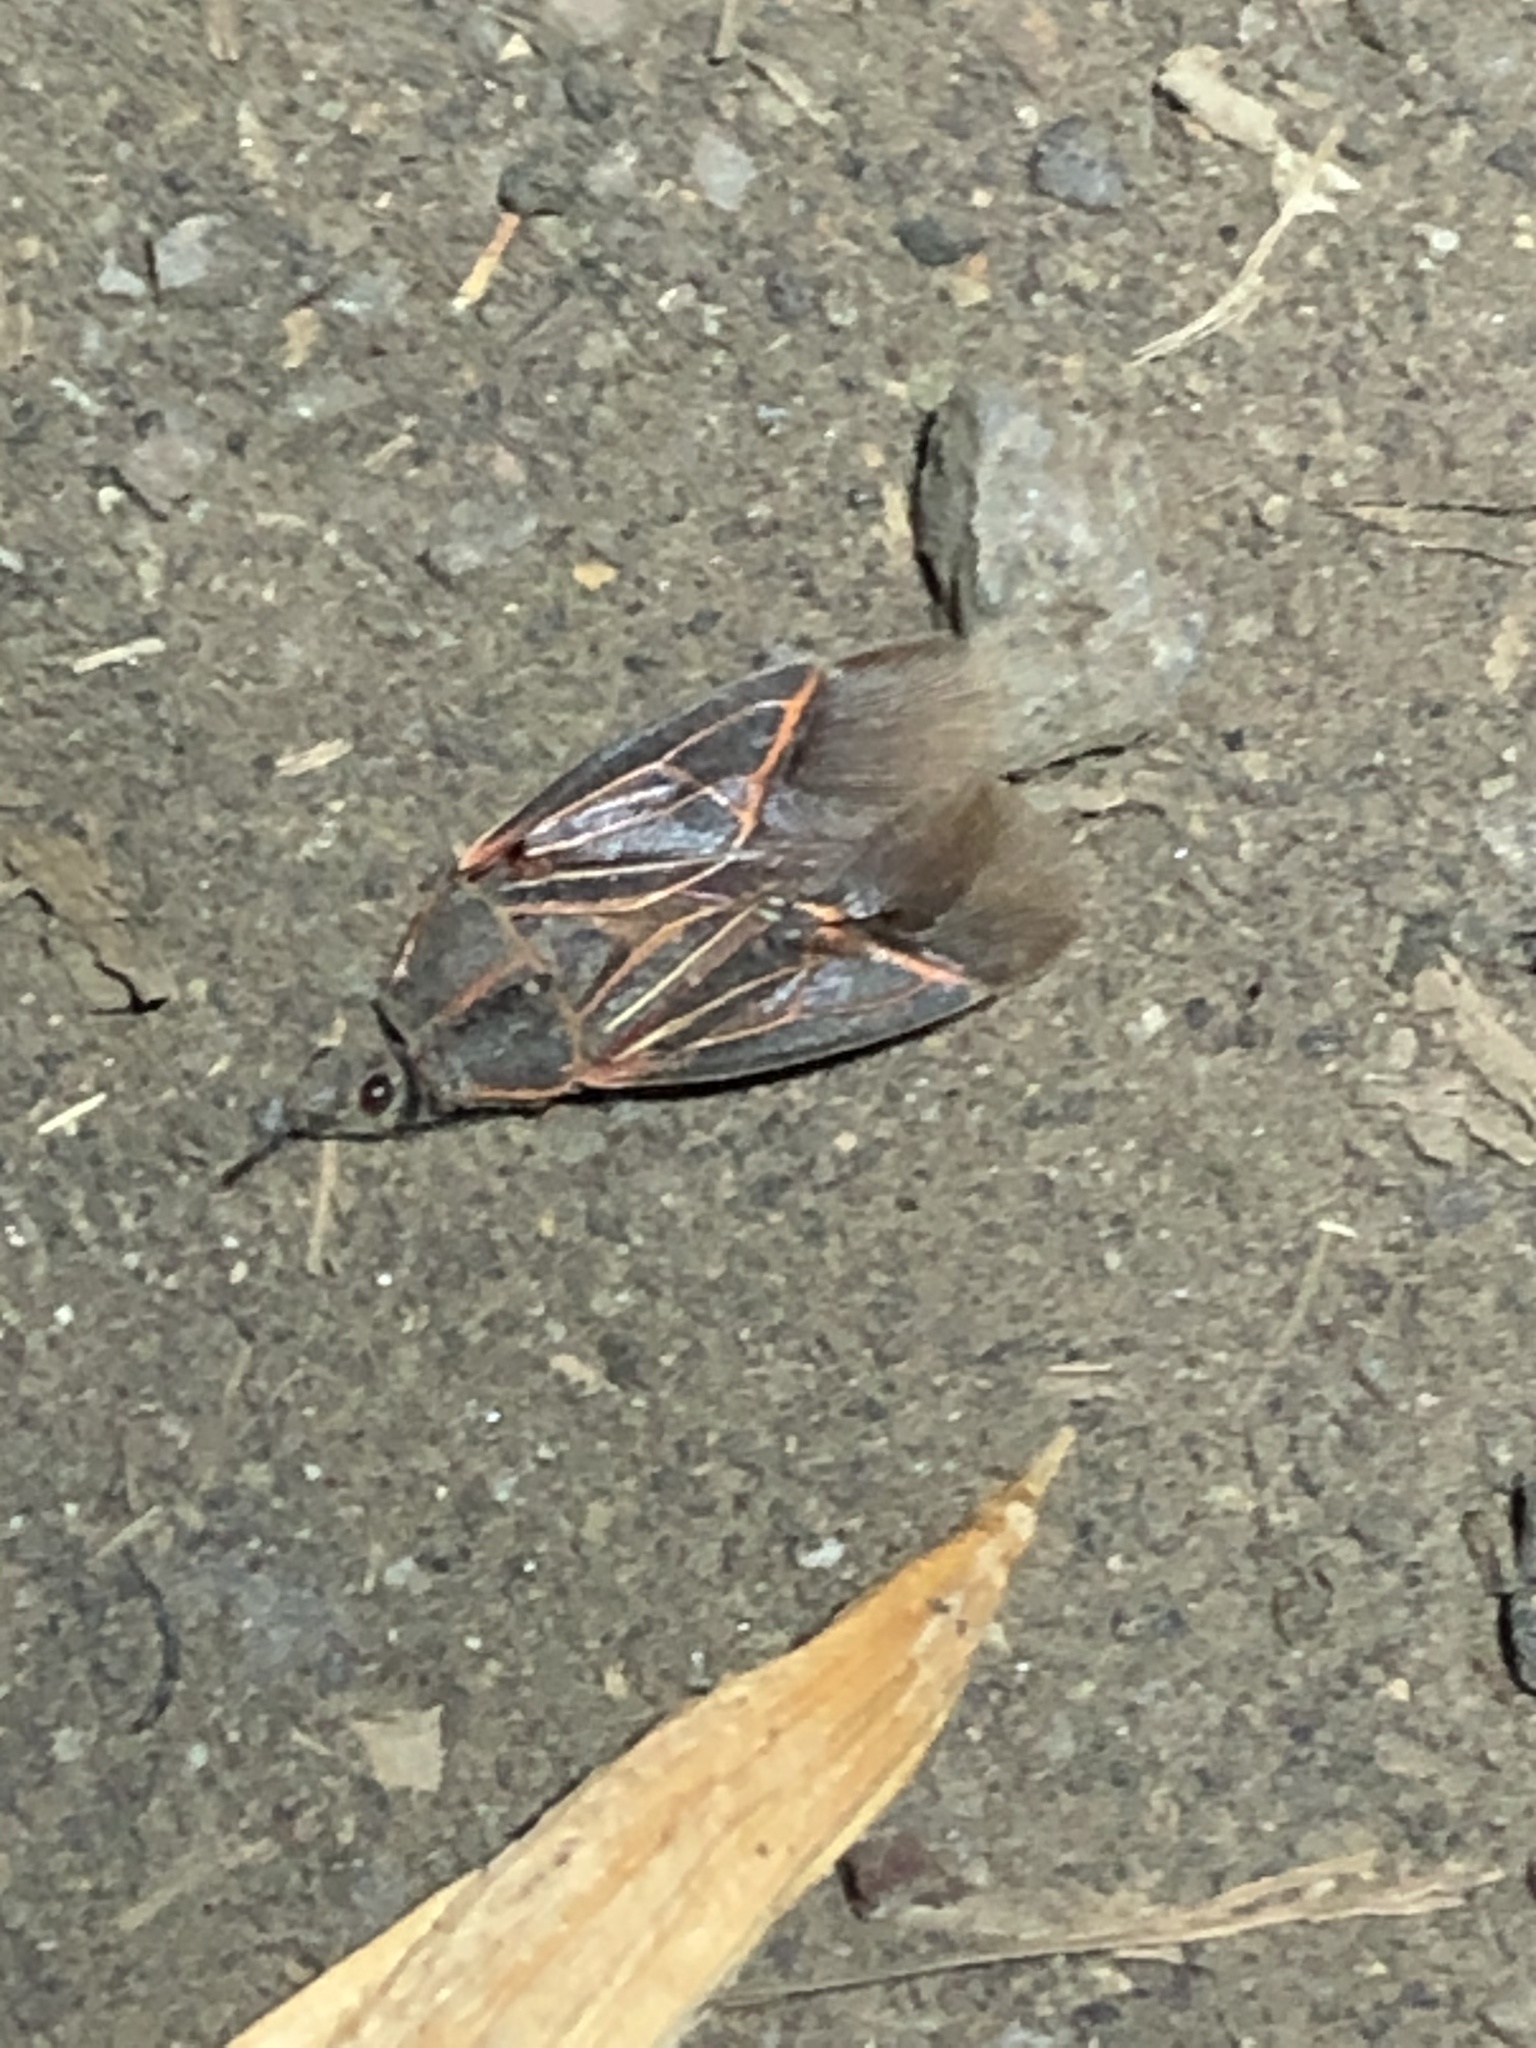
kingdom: Animalia
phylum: Arthropoda
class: Insecta
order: Hemiptera
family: Rhopalidae
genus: Boisea
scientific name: Boisea rubrolineata
